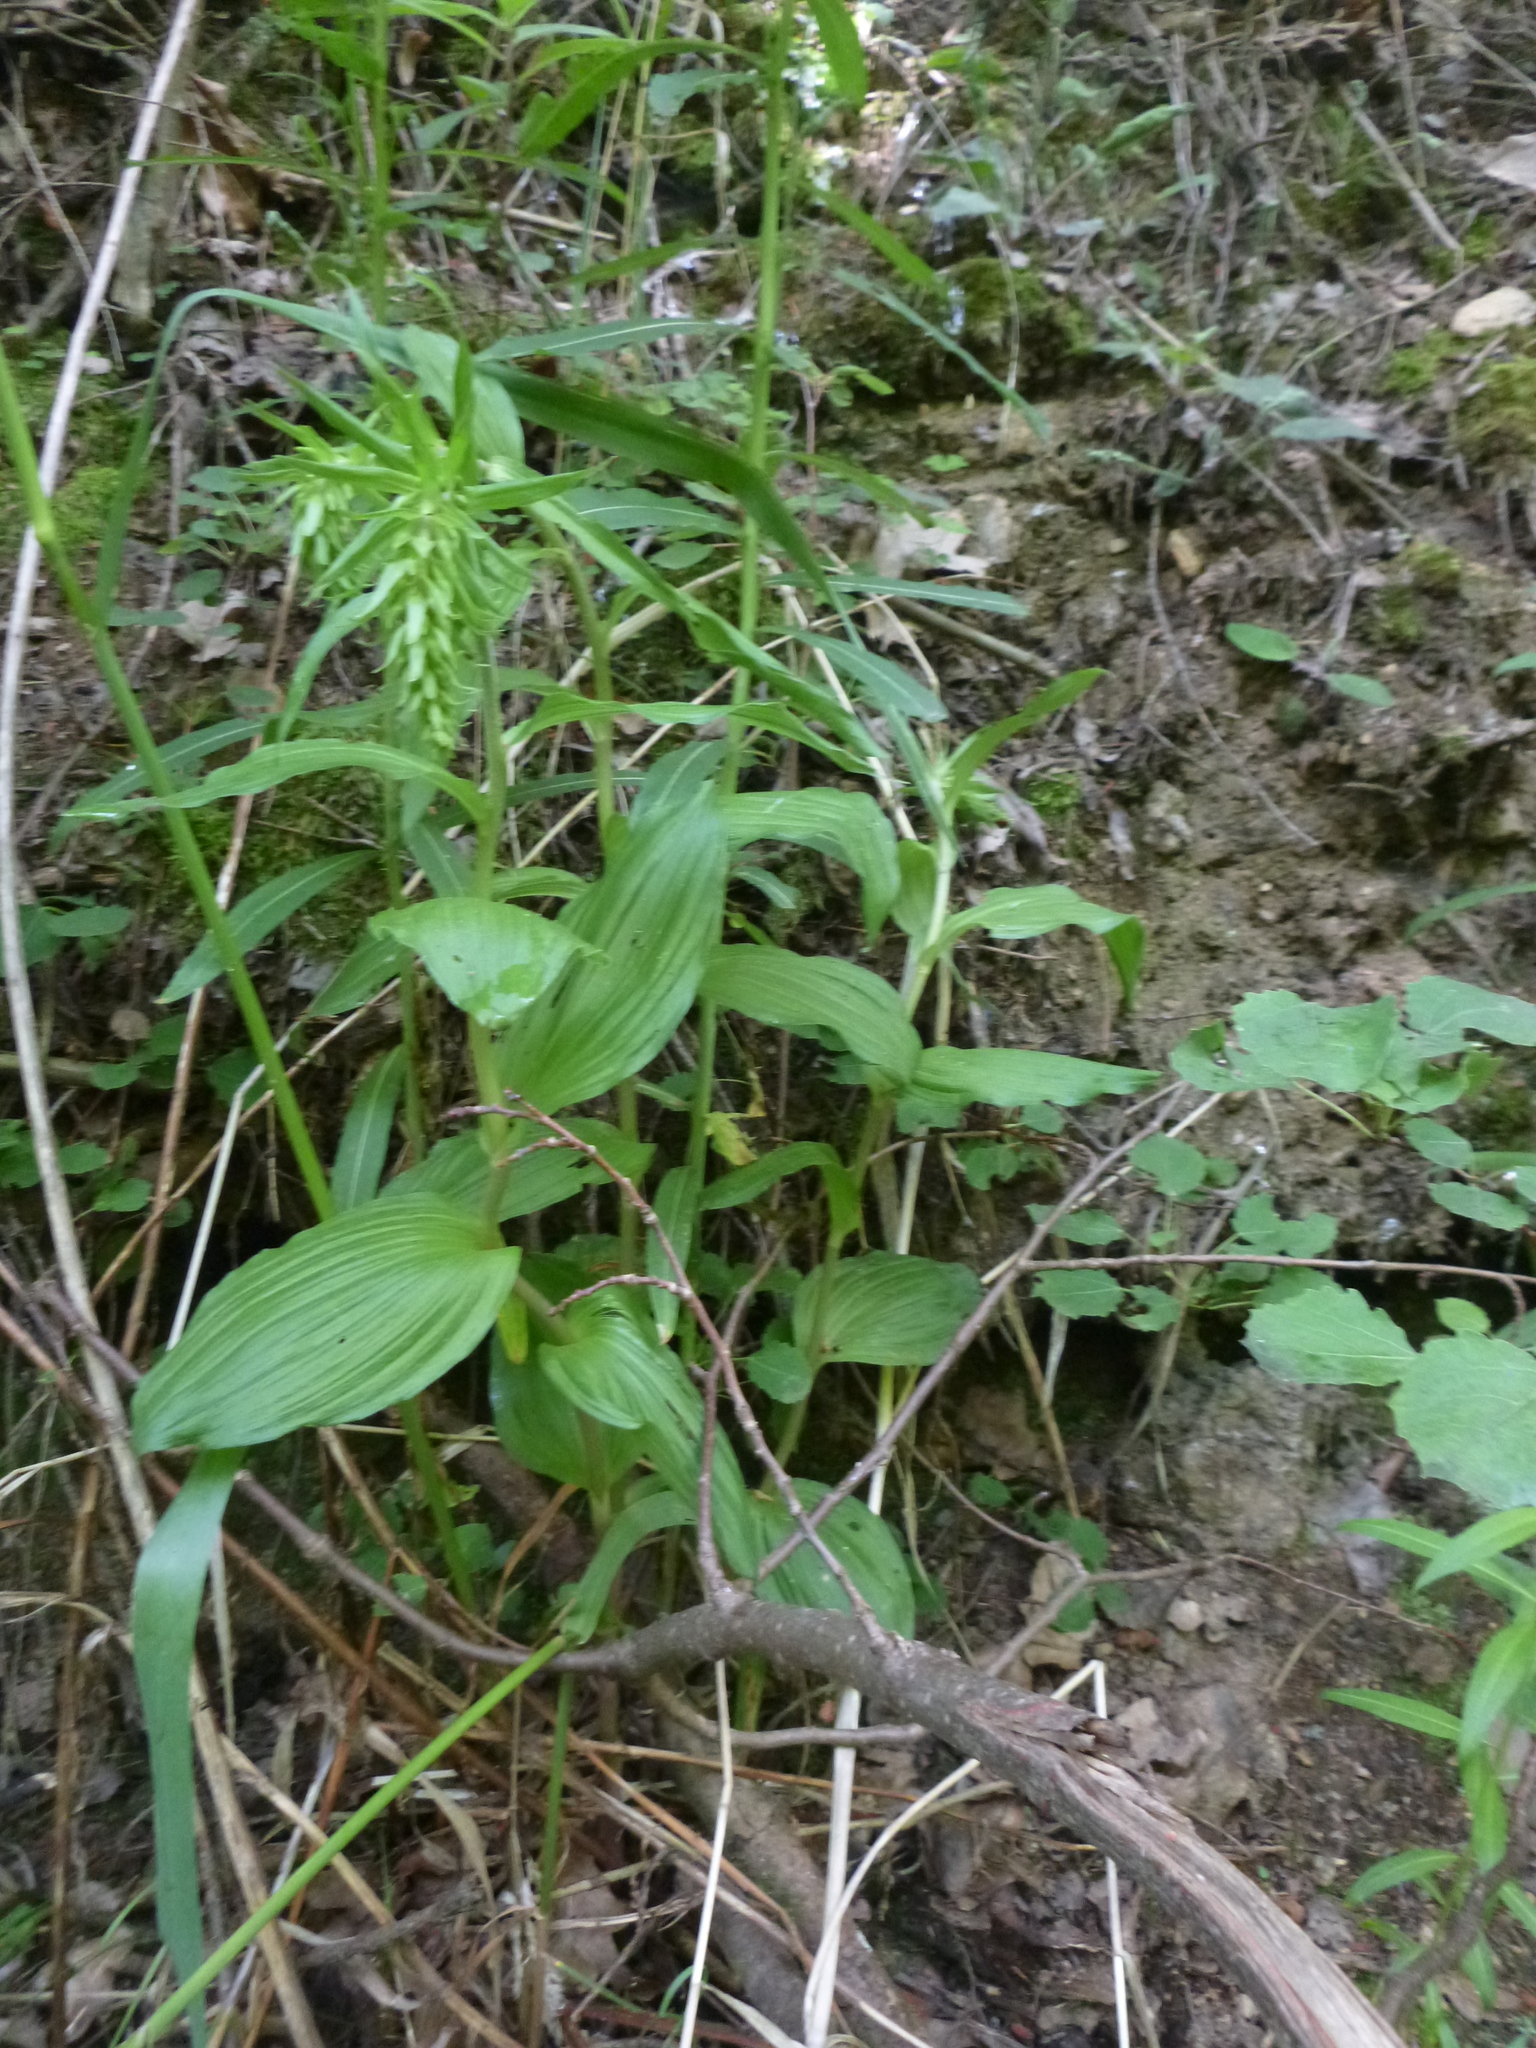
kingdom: Plantae
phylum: Tracheophyta
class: Liliopsida
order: Asparagales
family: Orchidaceae
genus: Epipactis
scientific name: Epipactis helleborine
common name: Broad-leaved helleborine
